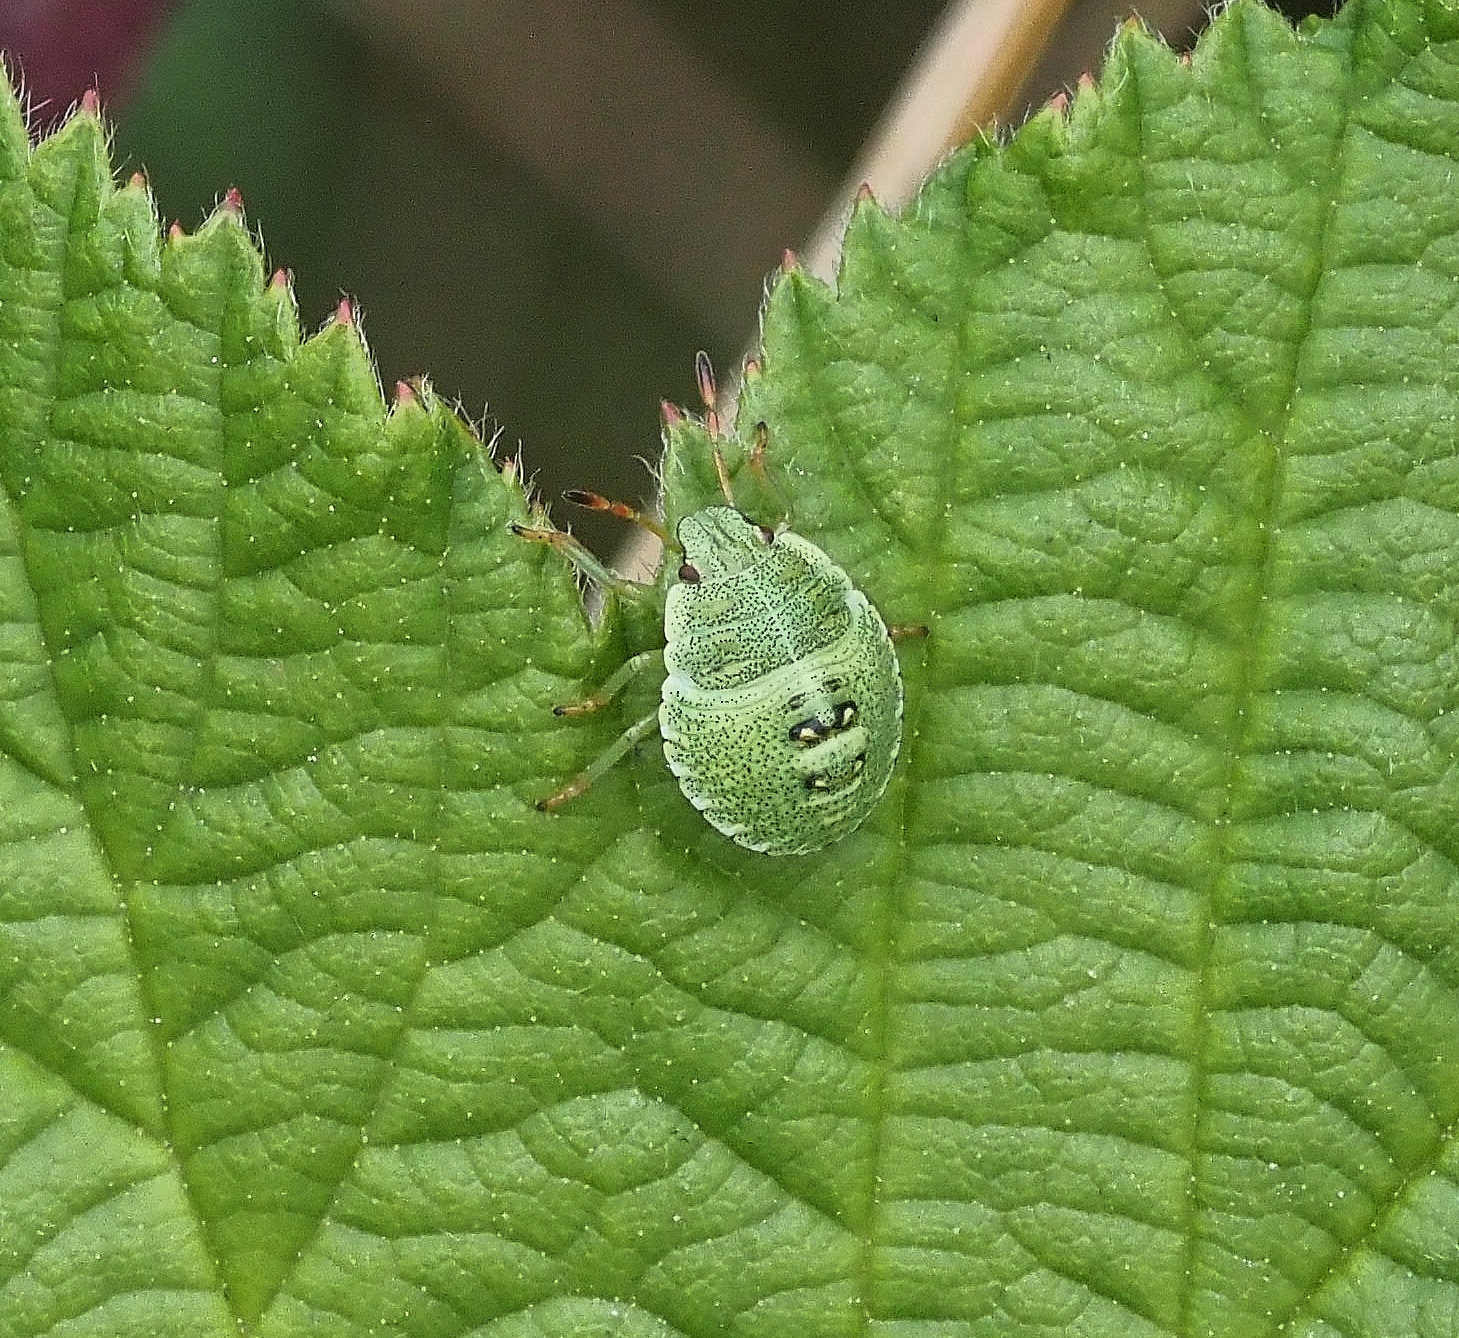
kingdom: Animalia
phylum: Arthropoda
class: Insecta
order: Hemiptera
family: Pentatomidae
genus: Palomena
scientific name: Palomena prasina
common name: Green shieldbug
